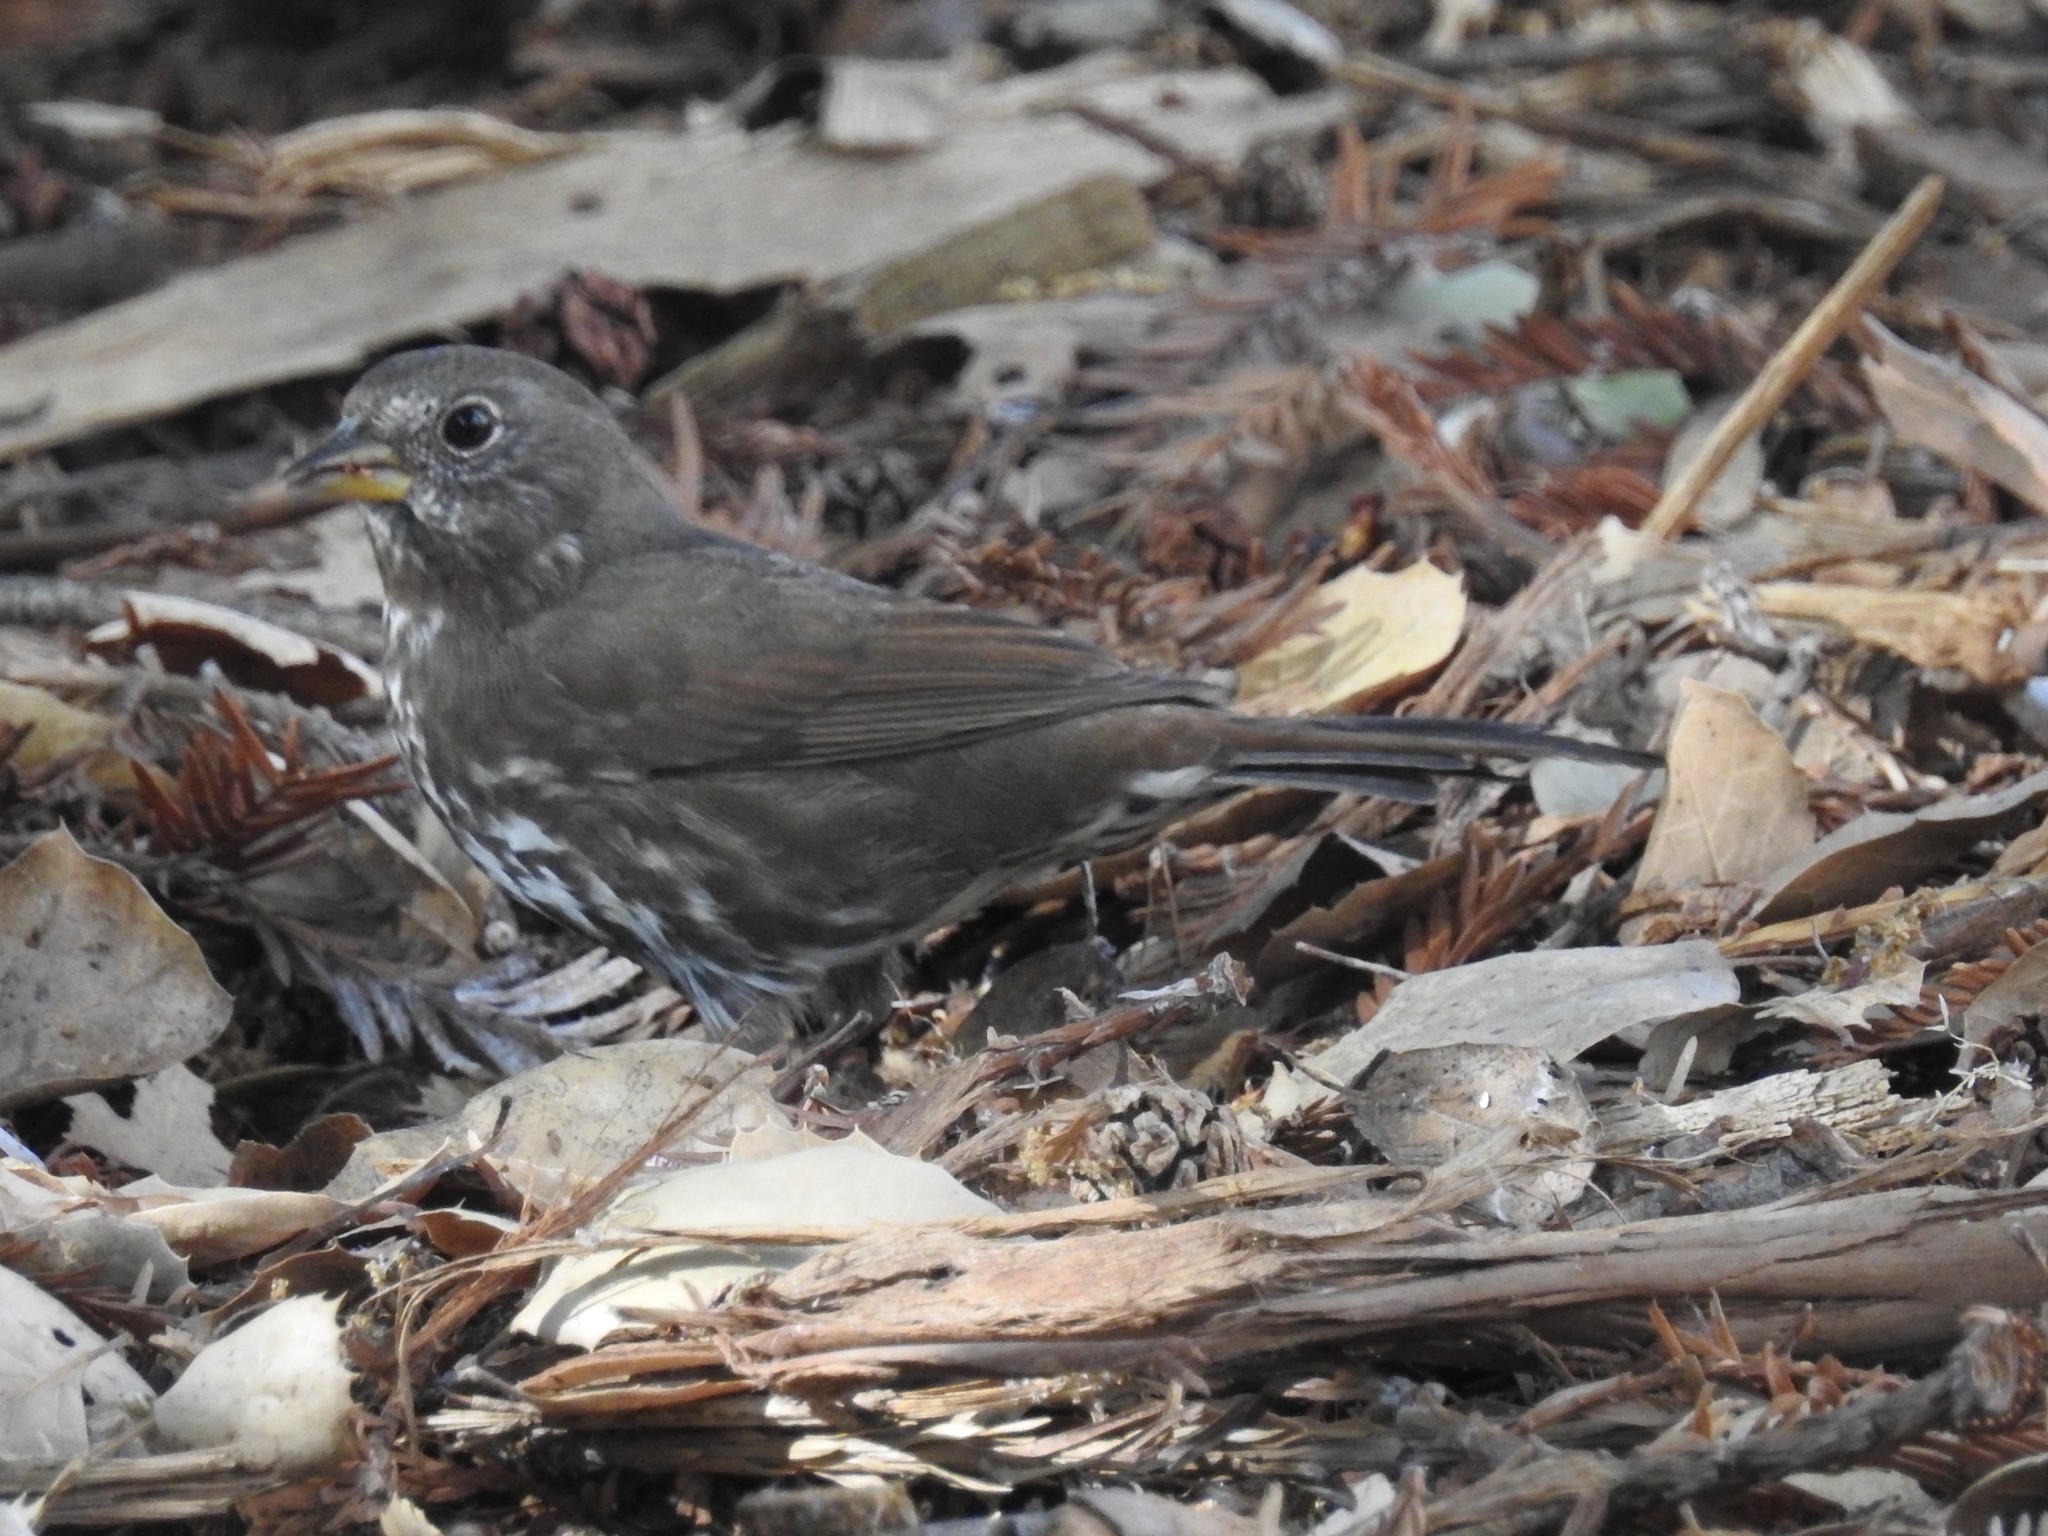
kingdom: Animalia
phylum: Chordata
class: Aves
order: Passeriformes
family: Passerellidae
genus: Passerella
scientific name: Passerella iliaca
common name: Fox sparrow
